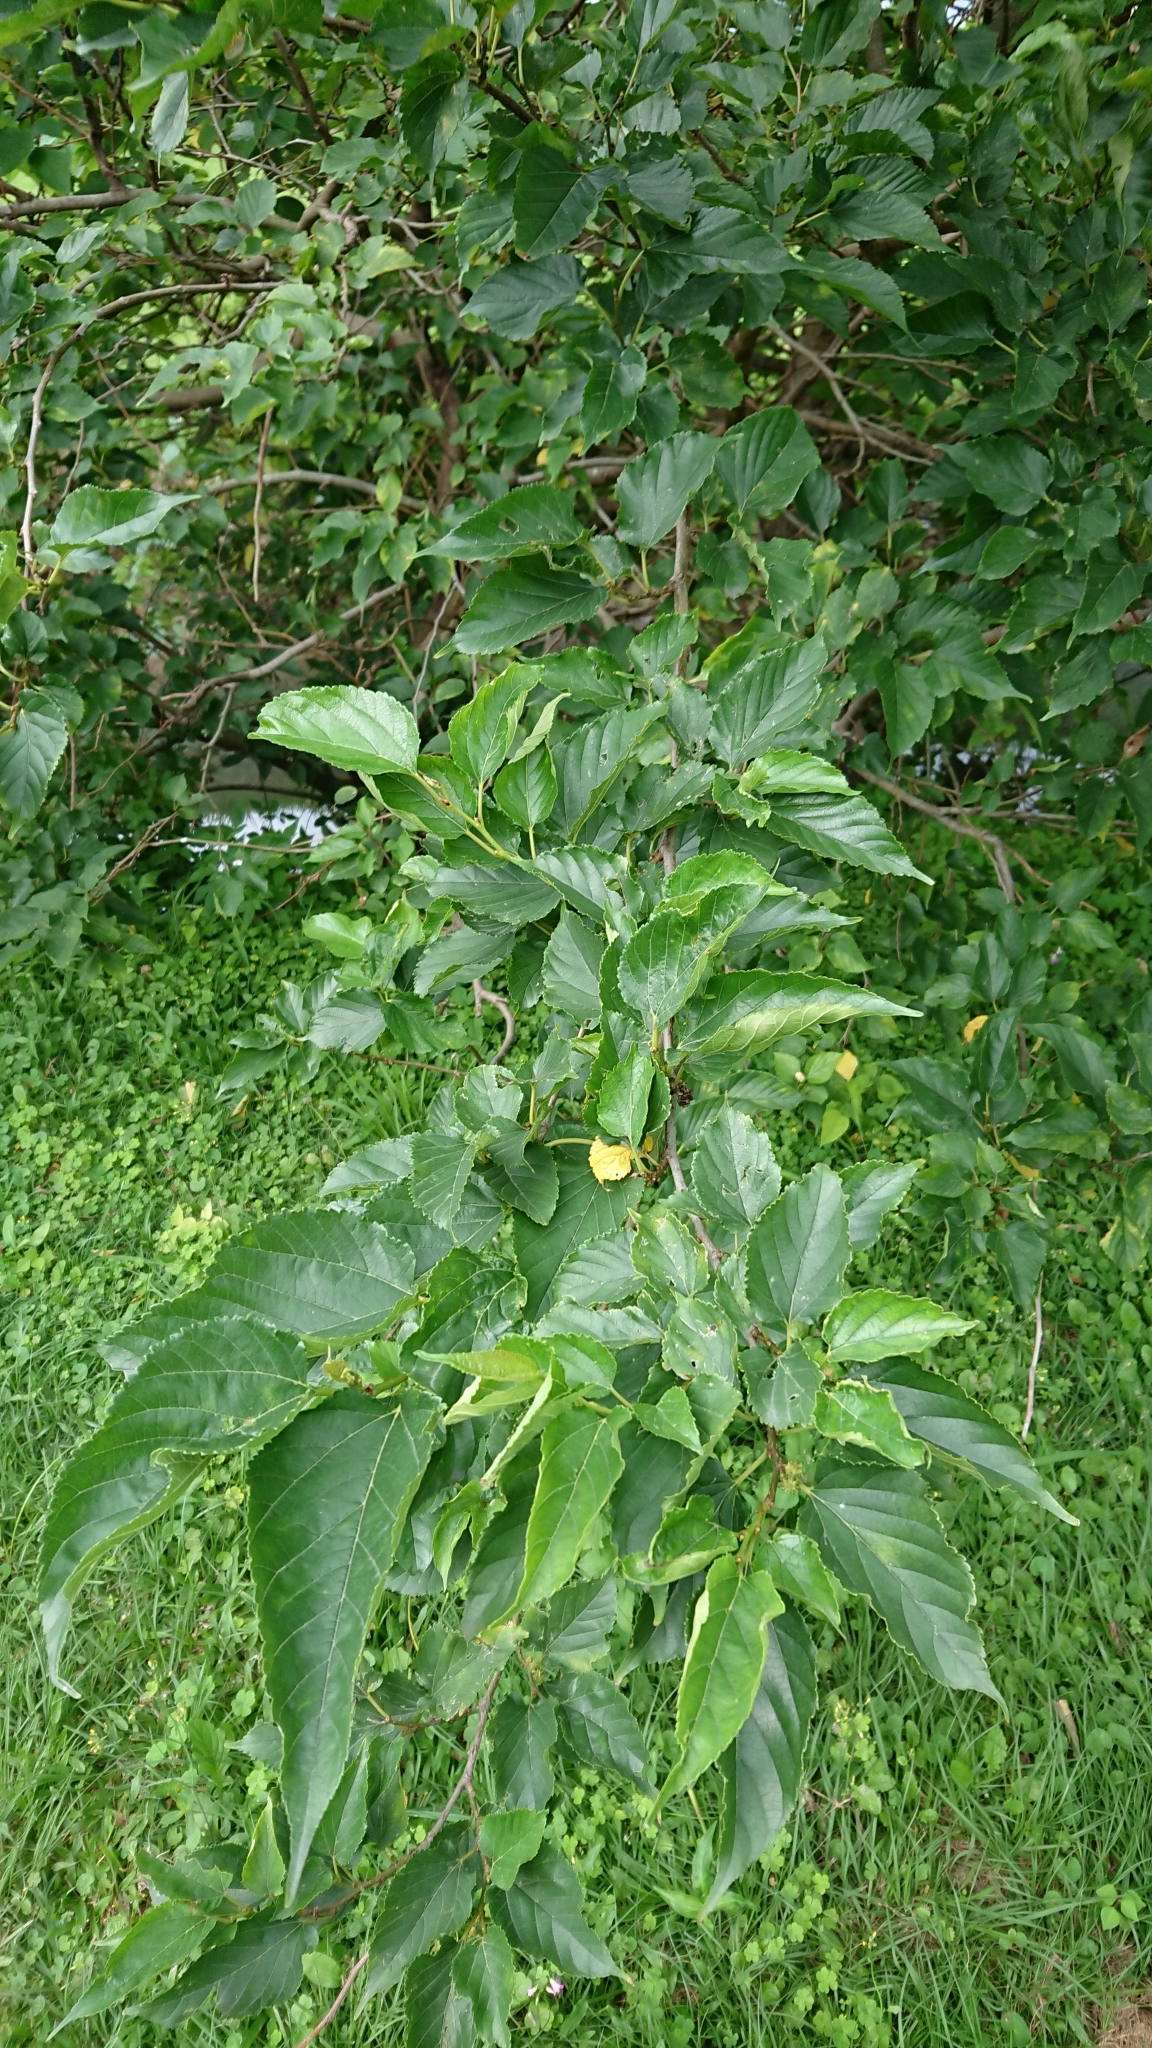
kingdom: Plantae
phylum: Tracheophyta
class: Magnoliopsida
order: Rosales
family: Moraceae
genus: Morus
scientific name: Morus indica
